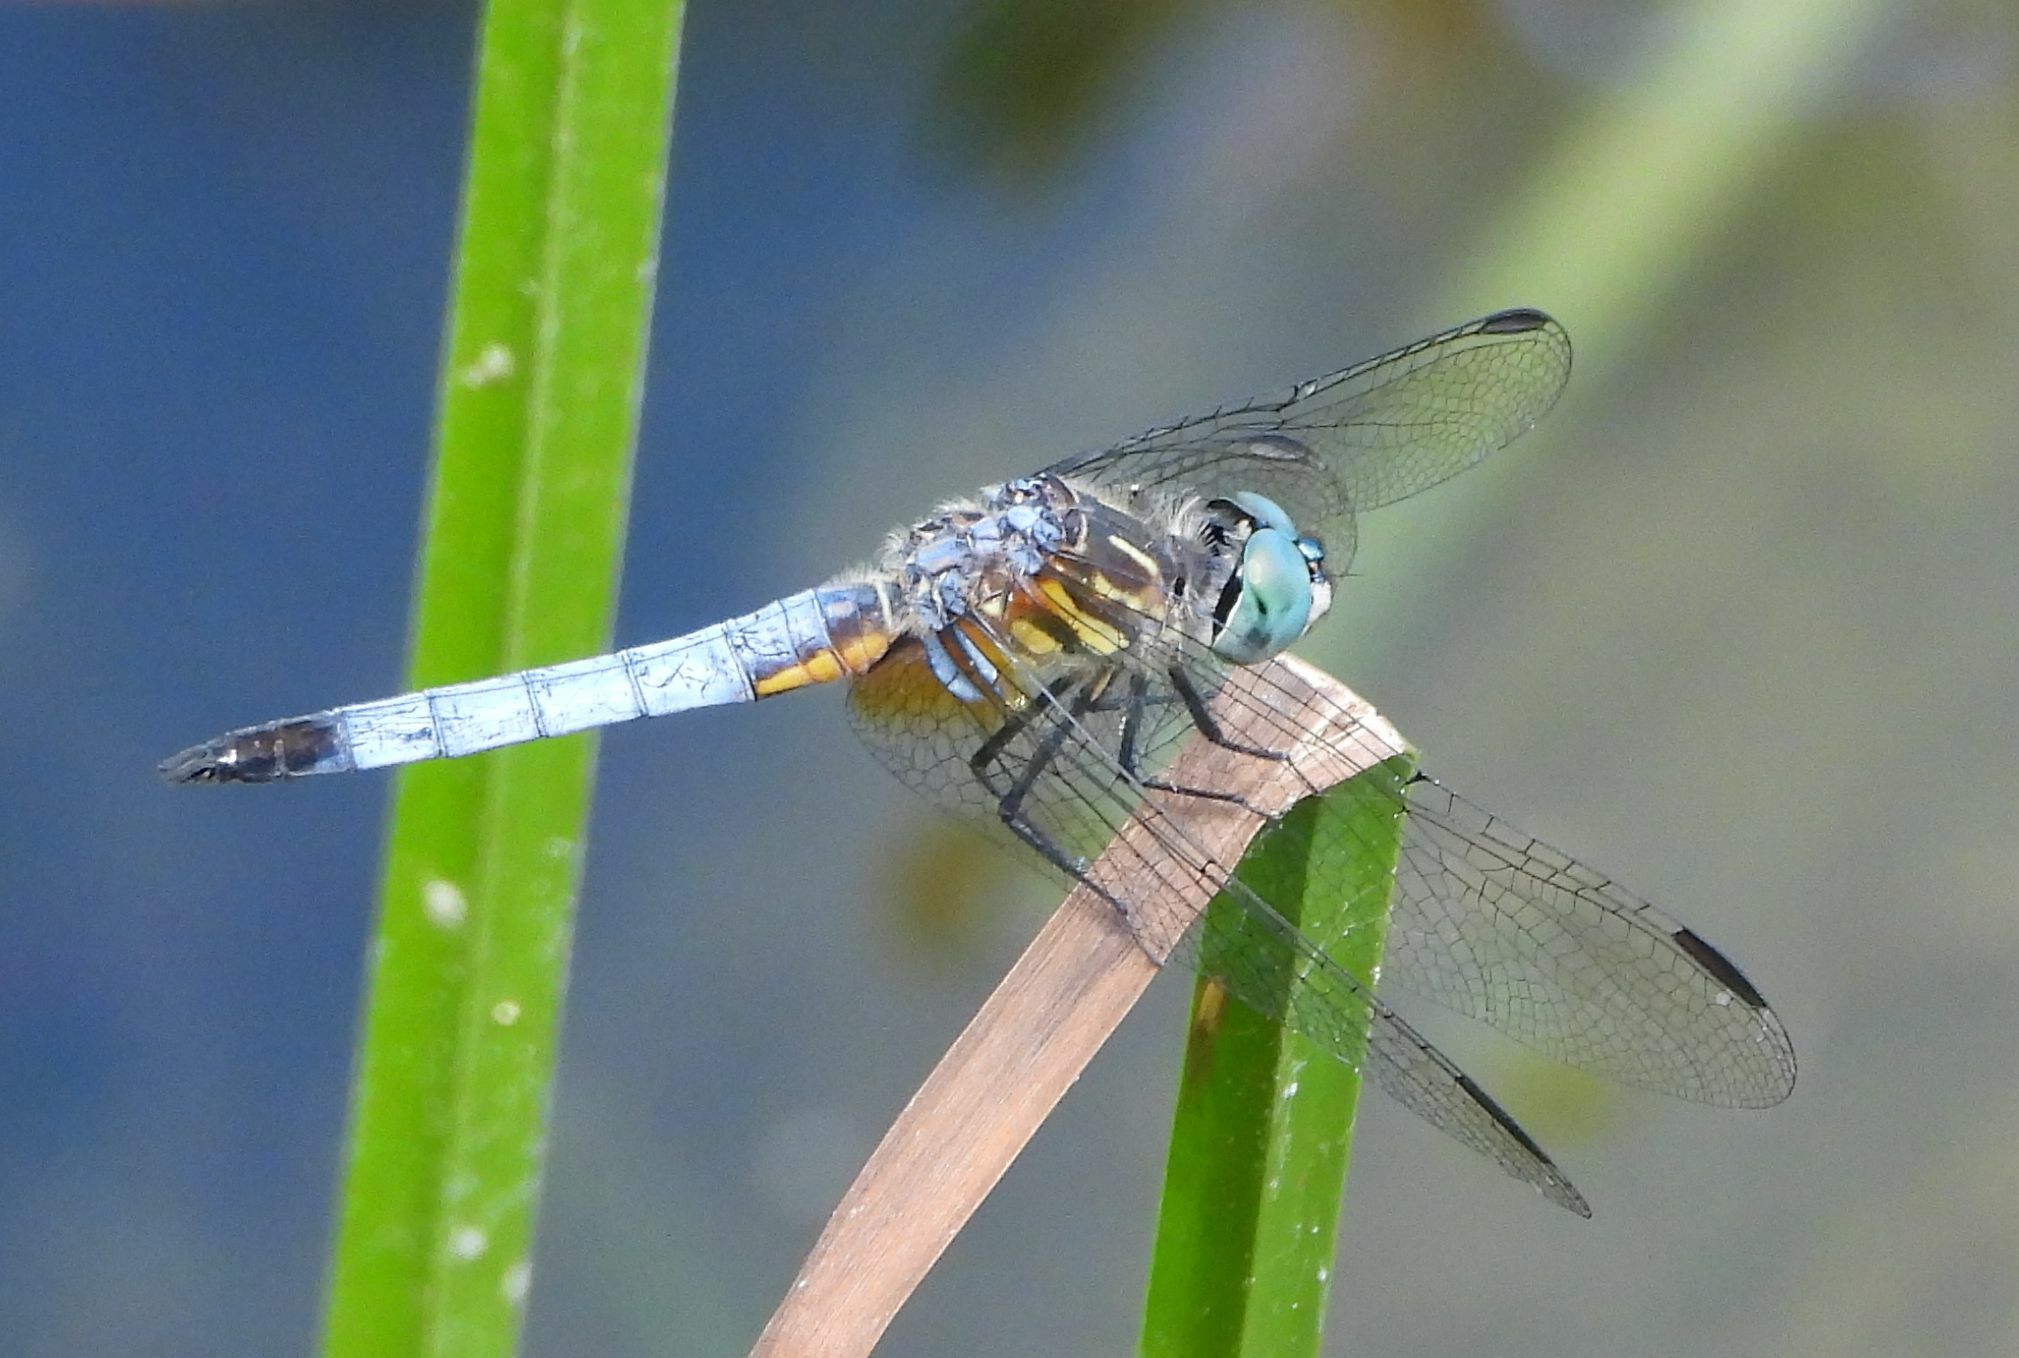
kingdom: Animalia
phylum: Arthropoda
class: Insecta
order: Odonata
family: Libellulidae
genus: Pachydiplax
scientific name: Pachydiplax longipennis
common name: Blue dasher
